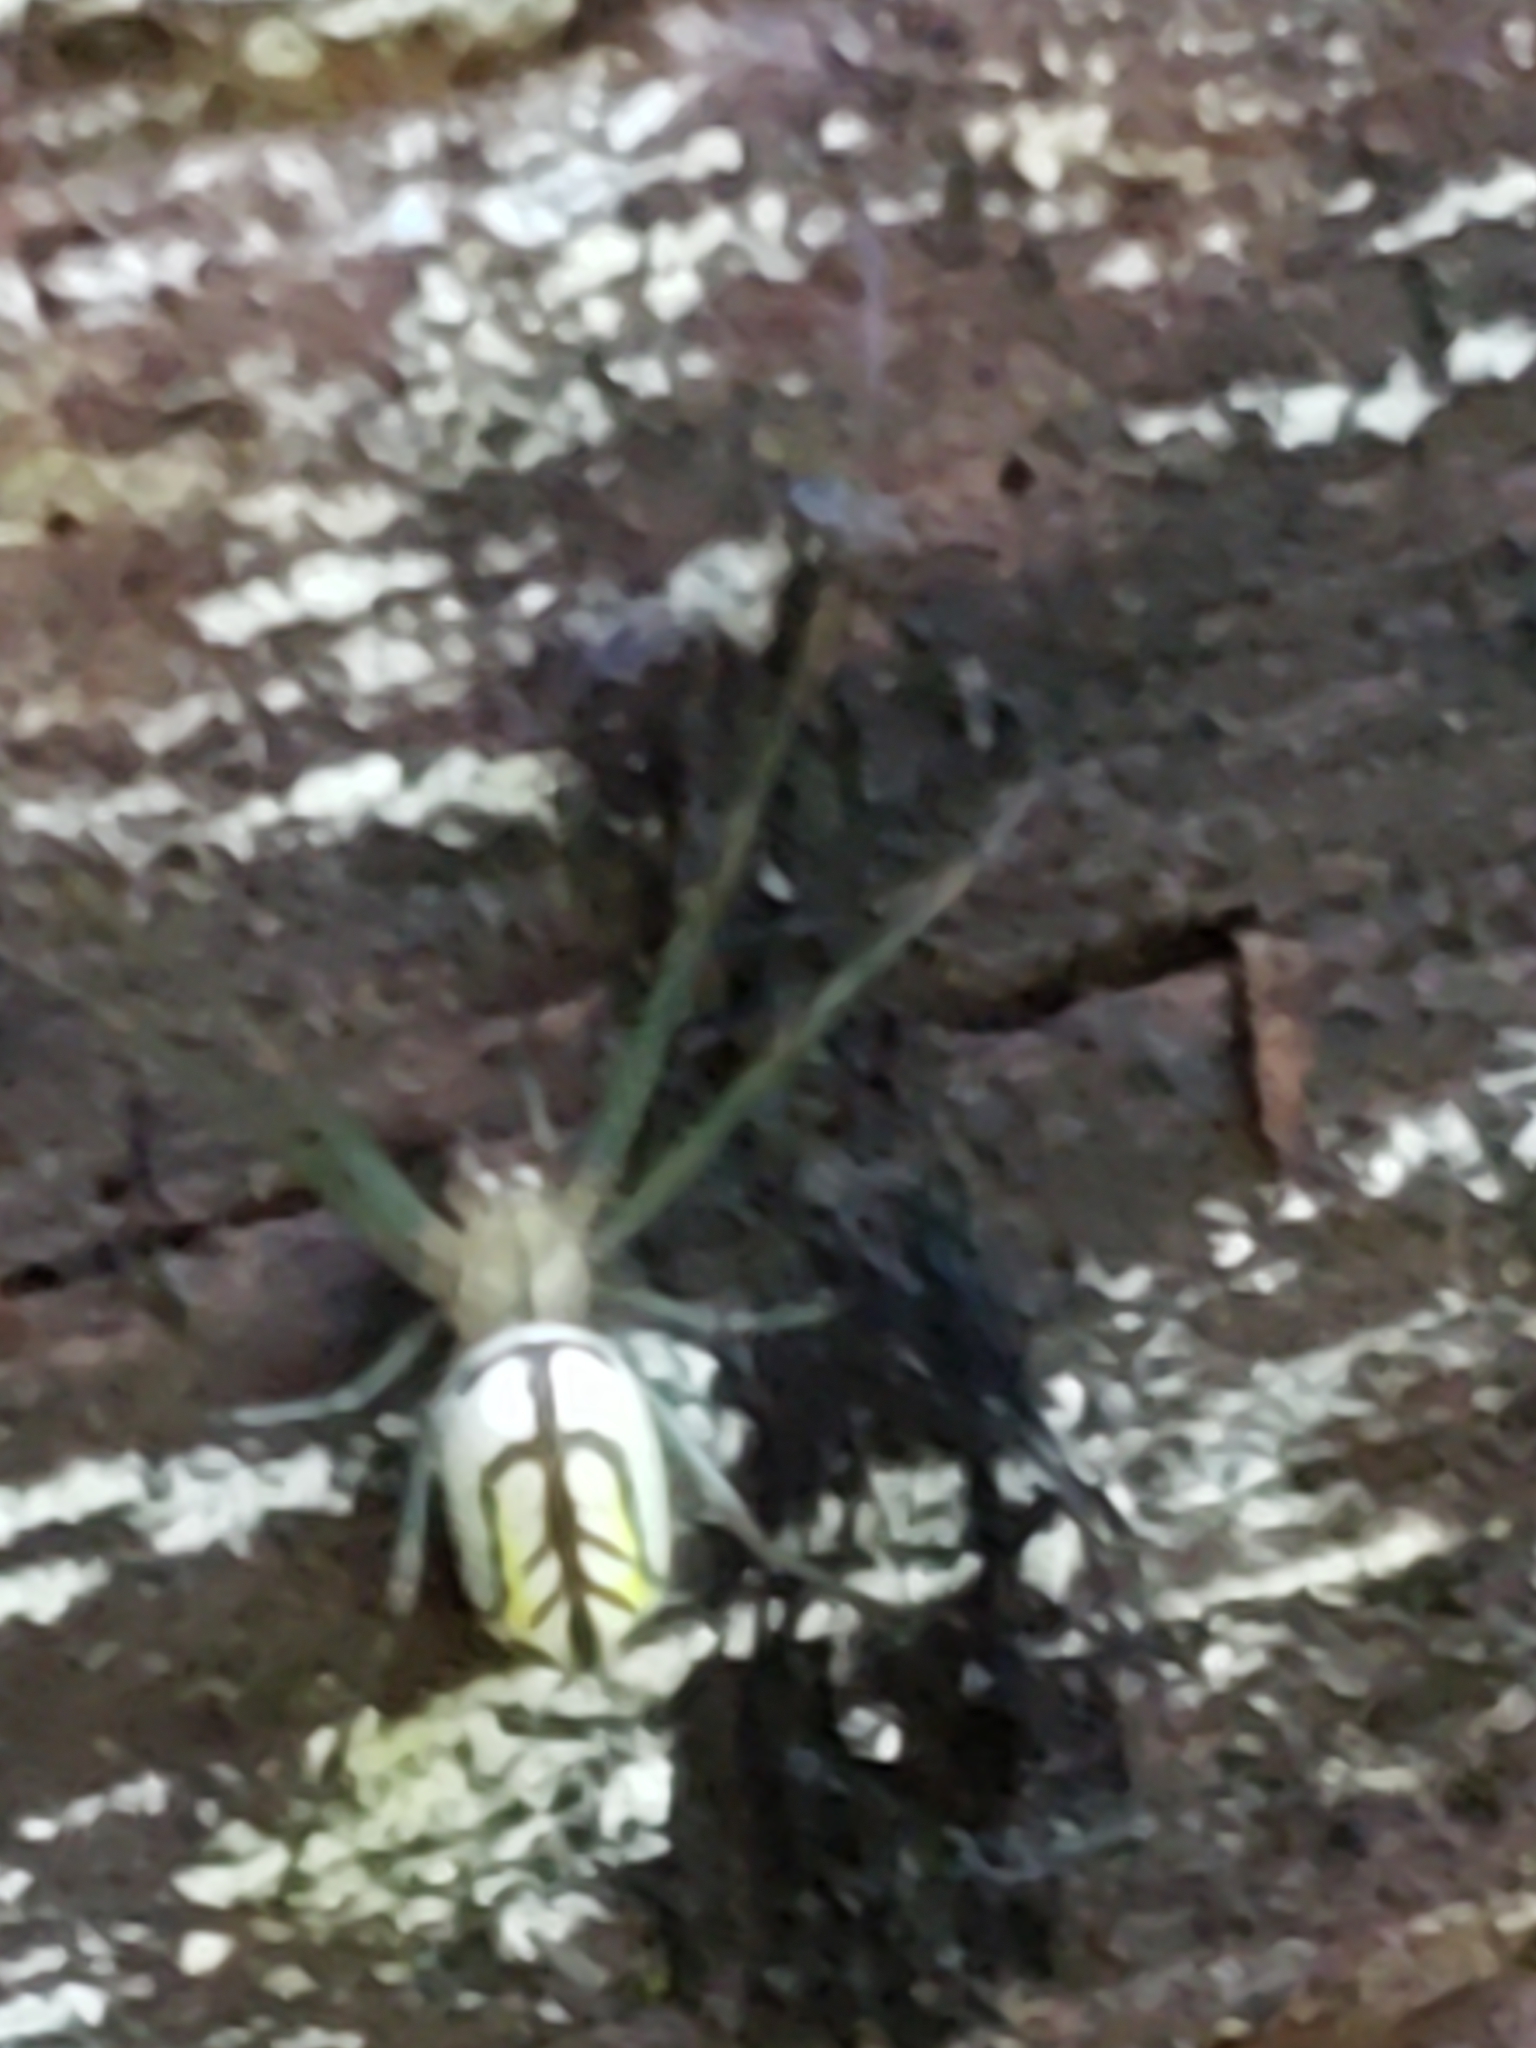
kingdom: Animalia
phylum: Arthropoda
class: Arachnida
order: Araneae
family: Tetragnathidae
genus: Leucauge
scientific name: Leucauge venusta
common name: Longjawed orb weavers
